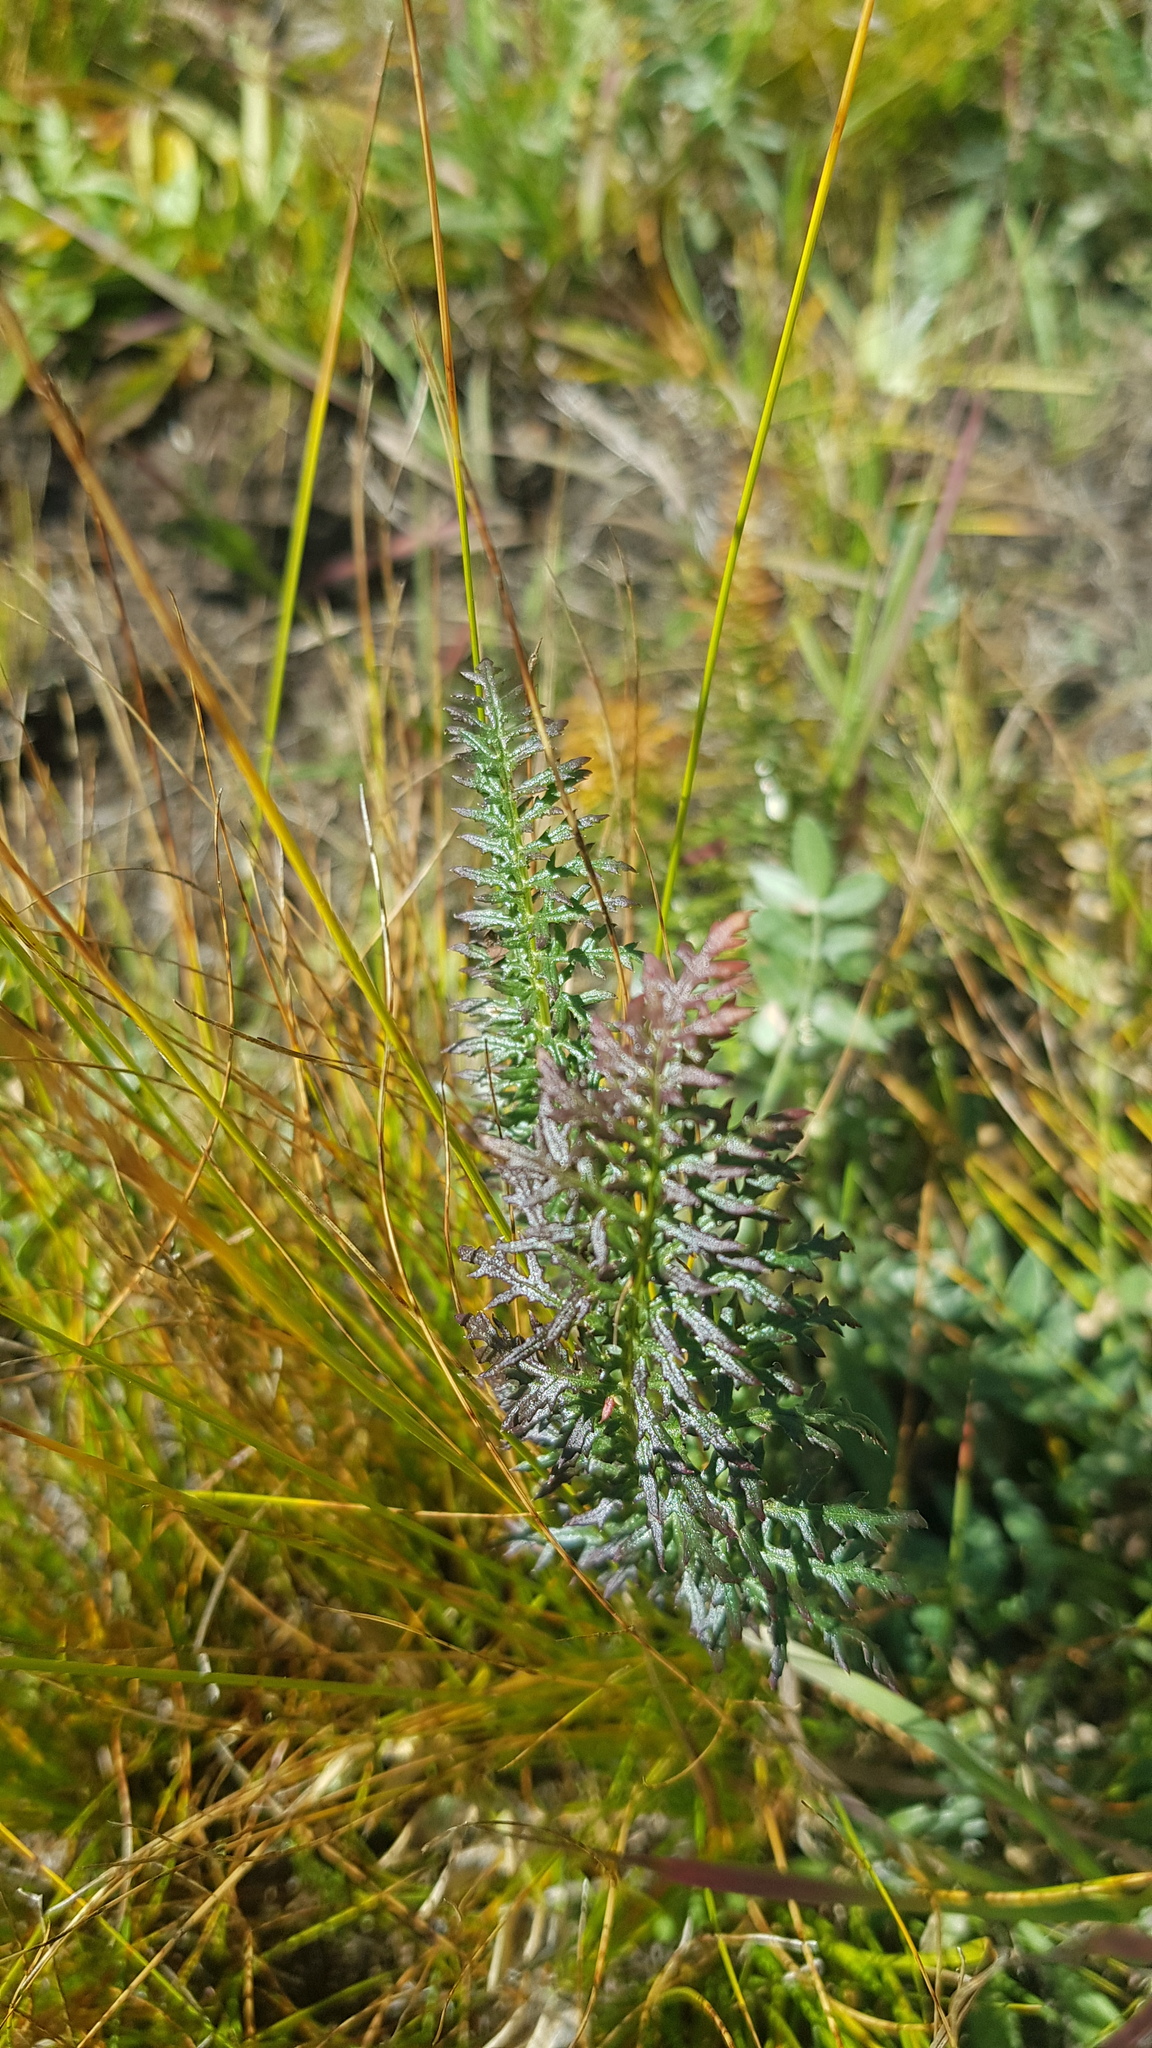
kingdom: Plantae
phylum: Tracheophyta
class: Magnoliopsida
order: Lamiales
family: Orobanchaceae
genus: Pedicularis
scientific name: Pedicularis rubens
